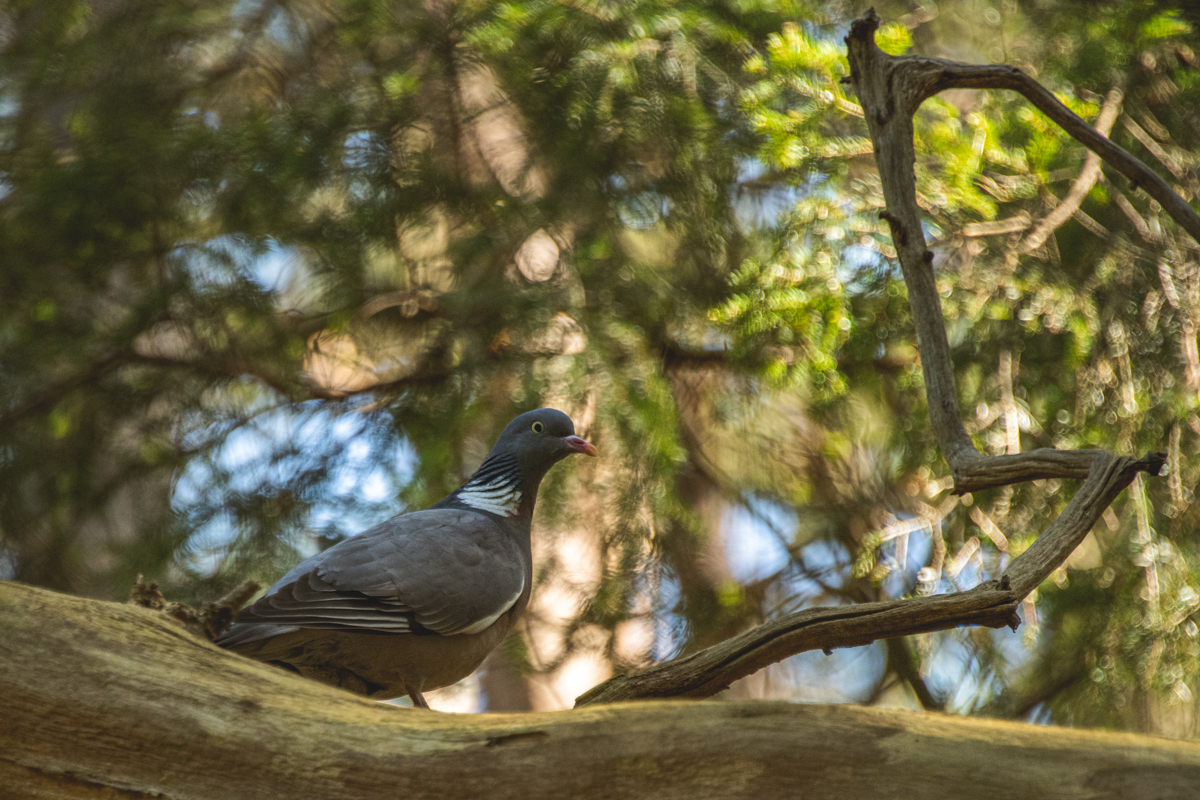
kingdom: Animalia
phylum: Chordata
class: Aves
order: Columbiformes
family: Columbidae
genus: Columba
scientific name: Columba palumbus
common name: Common wood pigeon
